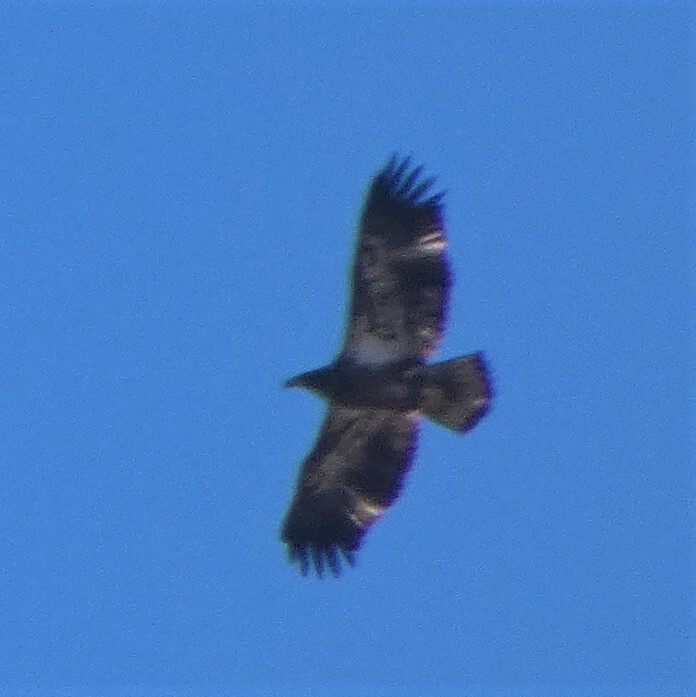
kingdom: Animalia
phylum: Chordata
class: Aves
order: Accipitriformes
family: Accipitridae
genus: Haliaeetus
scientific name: Haliaeetus leucocephalus
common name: Bald eagle
